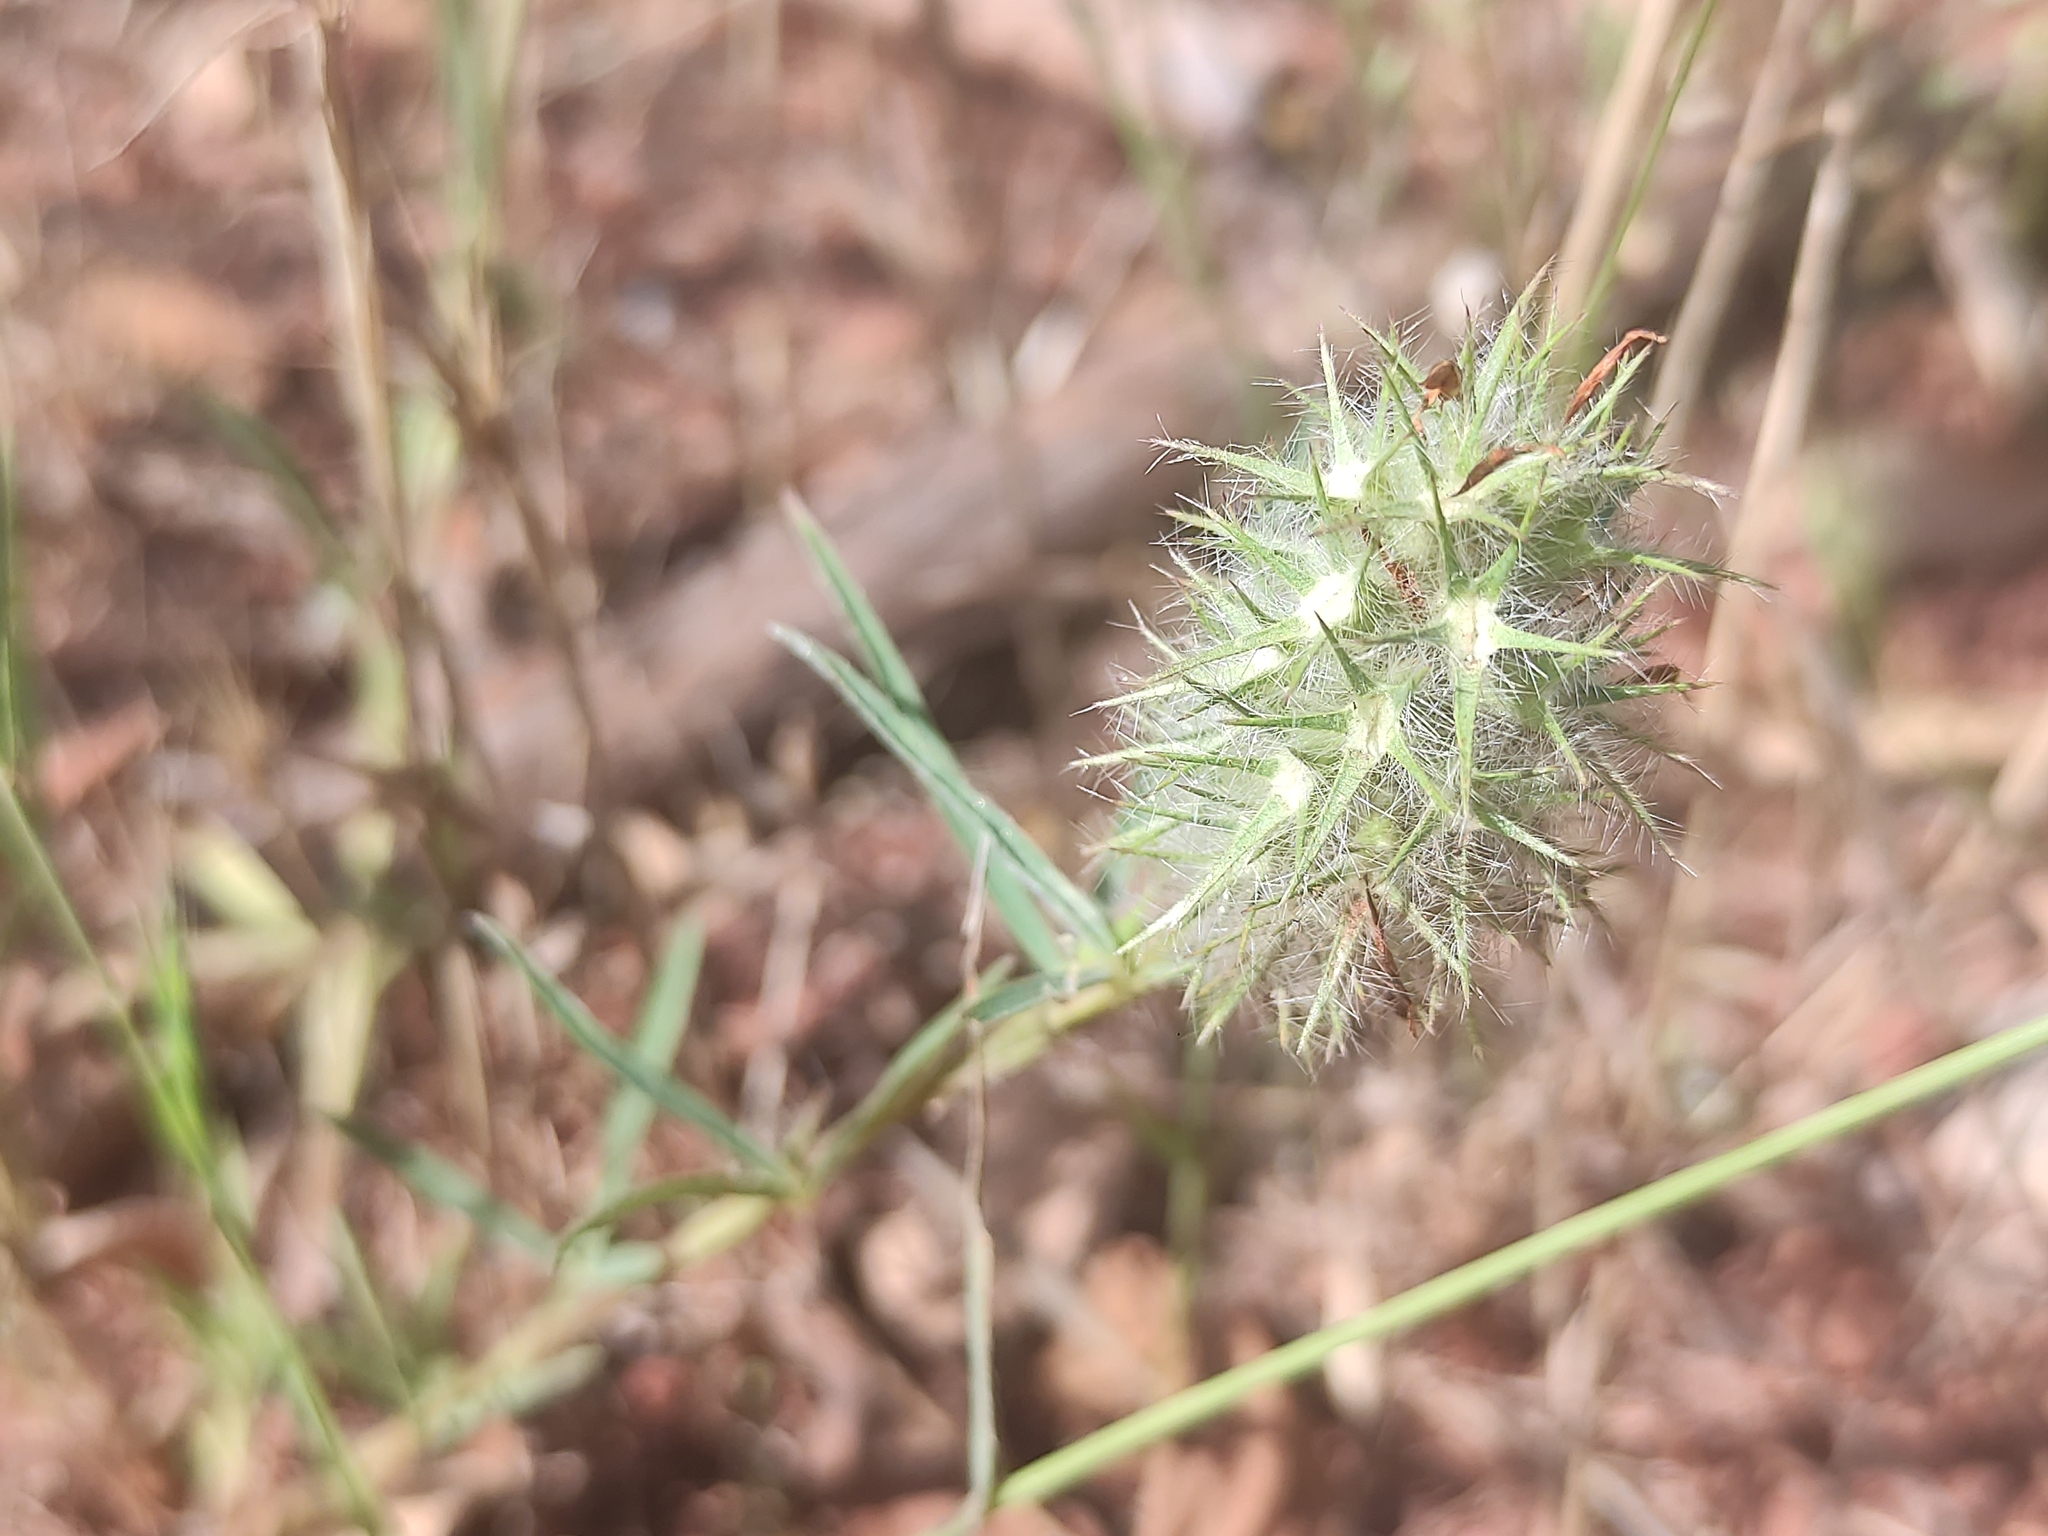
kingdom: Plantae
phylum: Tracheophyta
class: Magnoliopsida
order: Fabales
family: Fabaceae
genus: Trifolium
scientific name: Trifolium angustifolium
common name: Narrow clover
